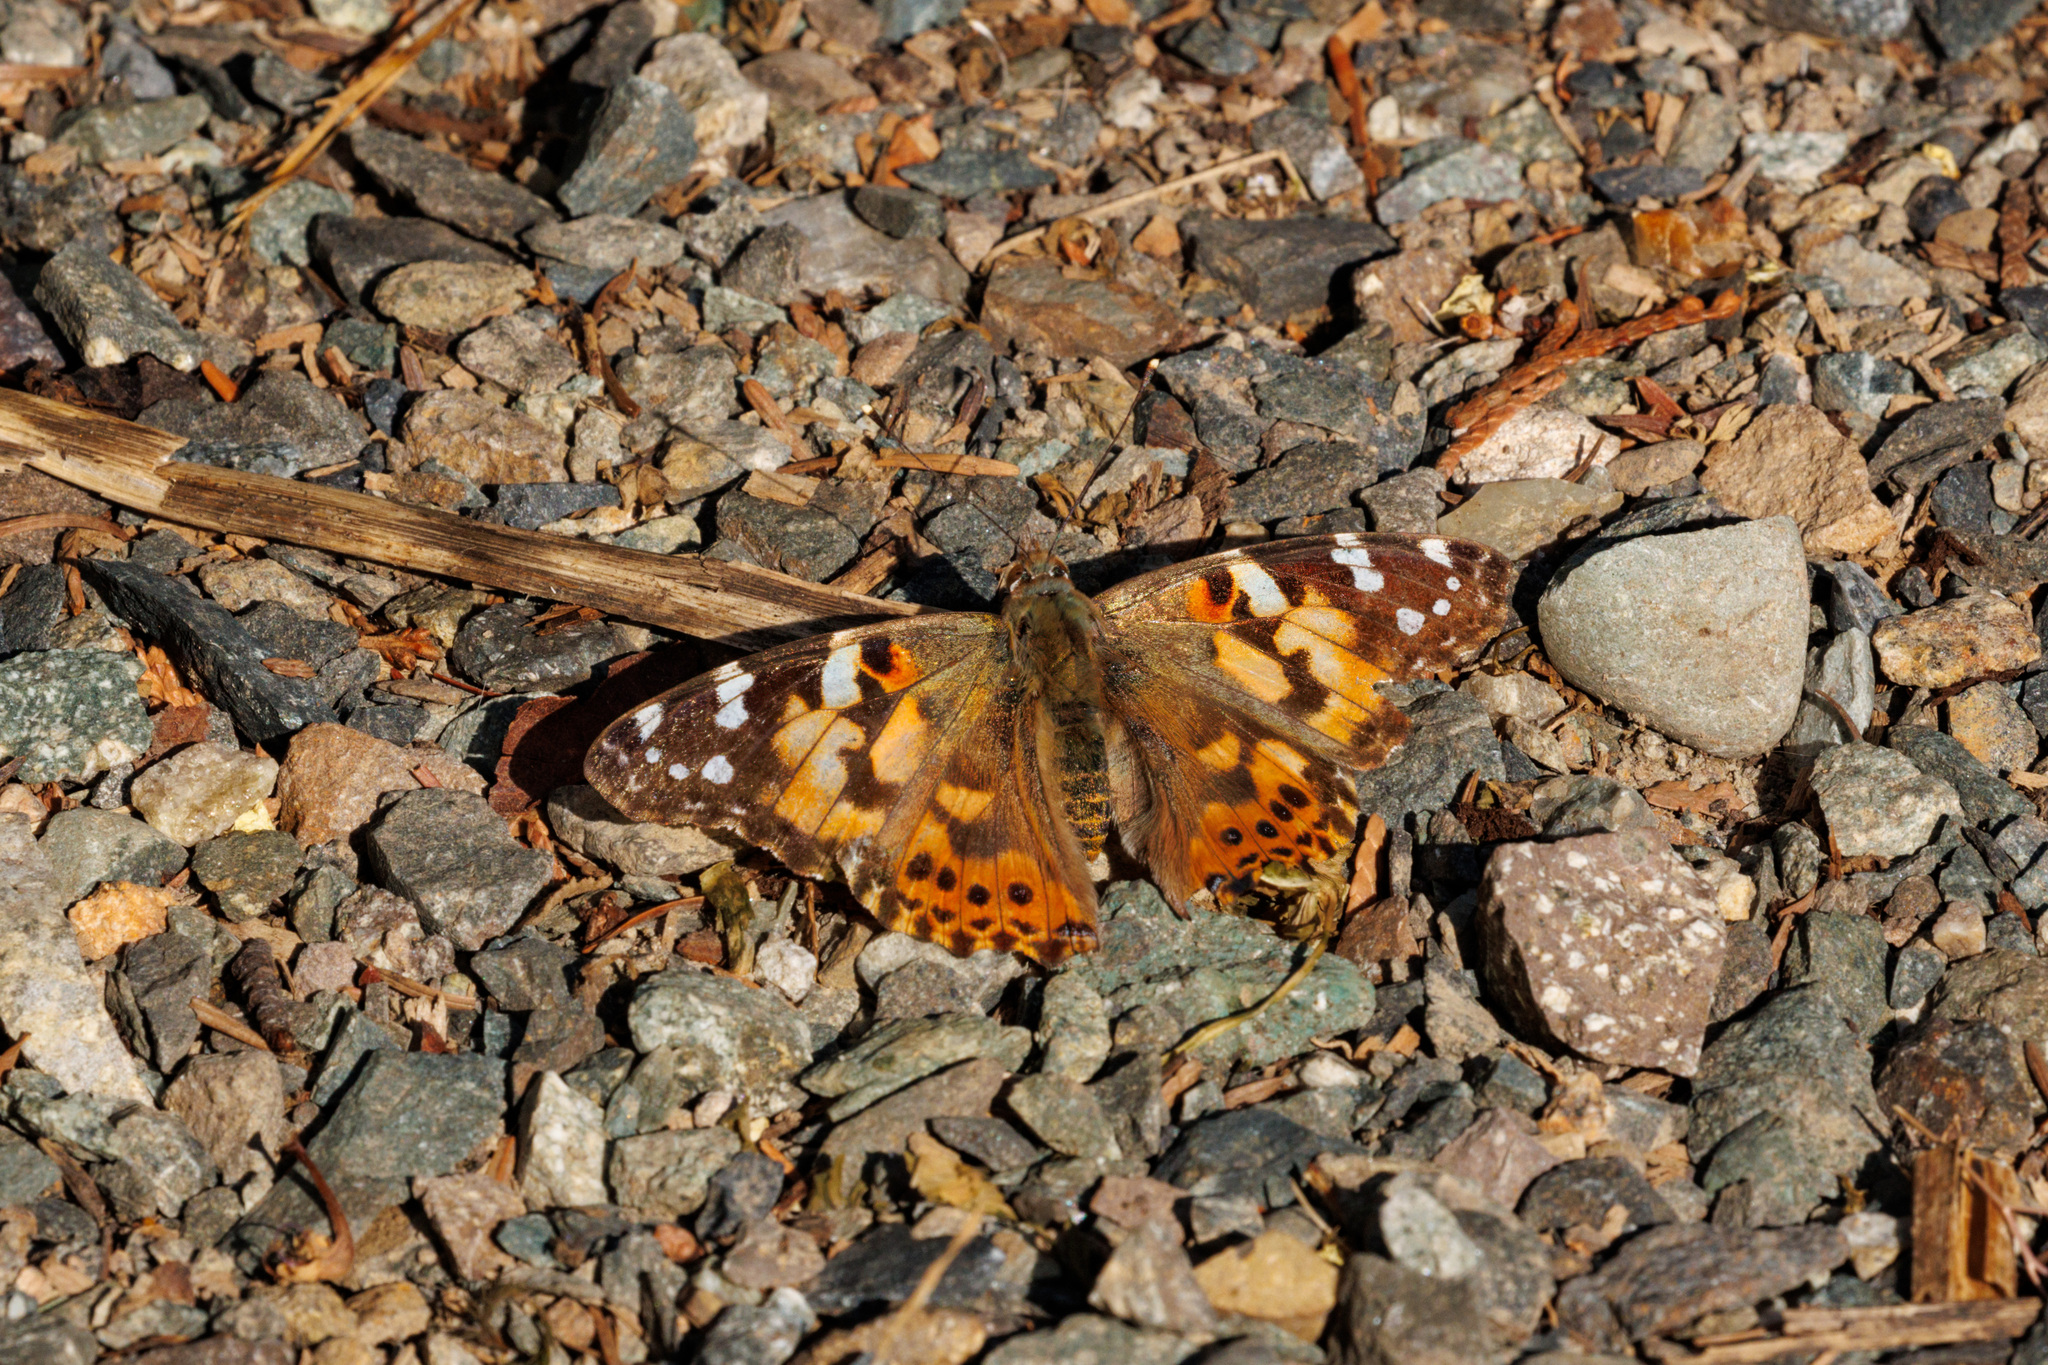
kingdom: Animalia
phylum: Arthropoda
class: Insecta
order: Lepidoptera
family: Nymphalidae
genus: Vanessa
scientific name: Vanessa cardui
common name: Painted lady
